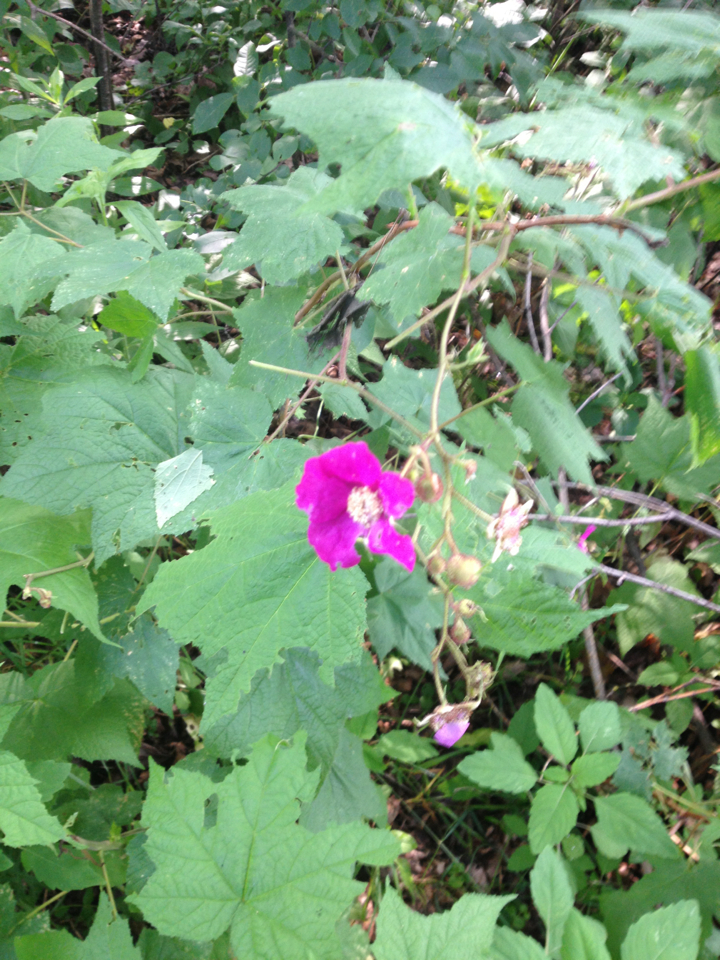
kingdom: Plantae
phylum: Tracheophyta
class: Magnoliopsida
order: Rosales
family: Rosaceae
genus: Rubus
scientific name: Rubus odoratus
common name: Purple-flowered raspberry
